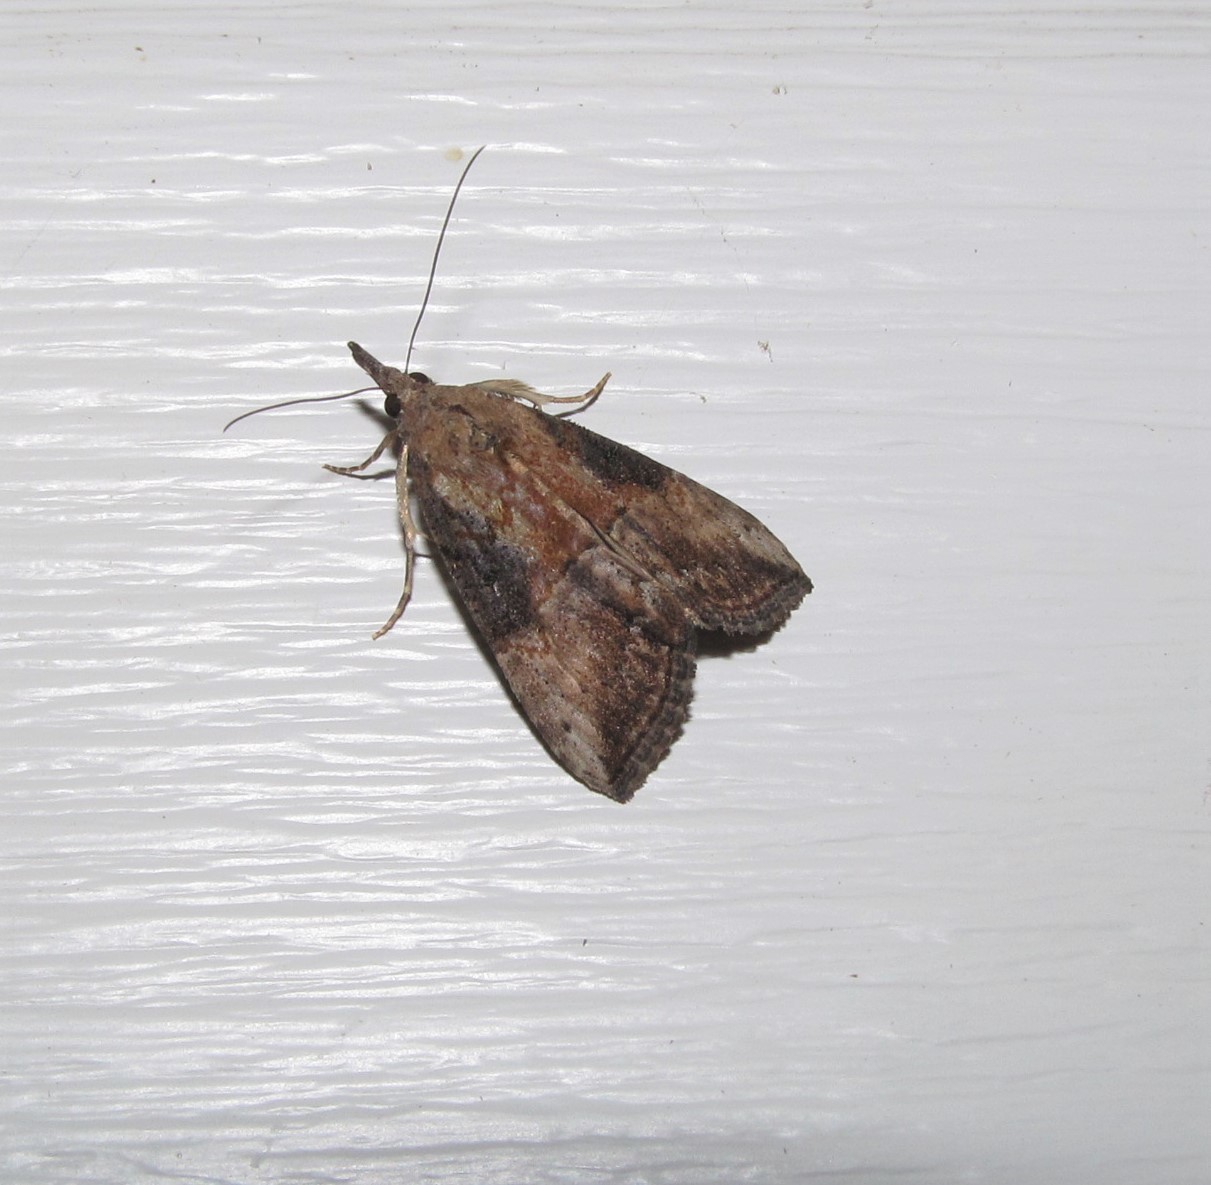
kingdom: Animalia
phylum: Arthropoda
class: Insecta
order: Lepidoptera
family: Erebidae
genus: Hypena
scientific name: Hypena scabra
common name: Green cloverworm
